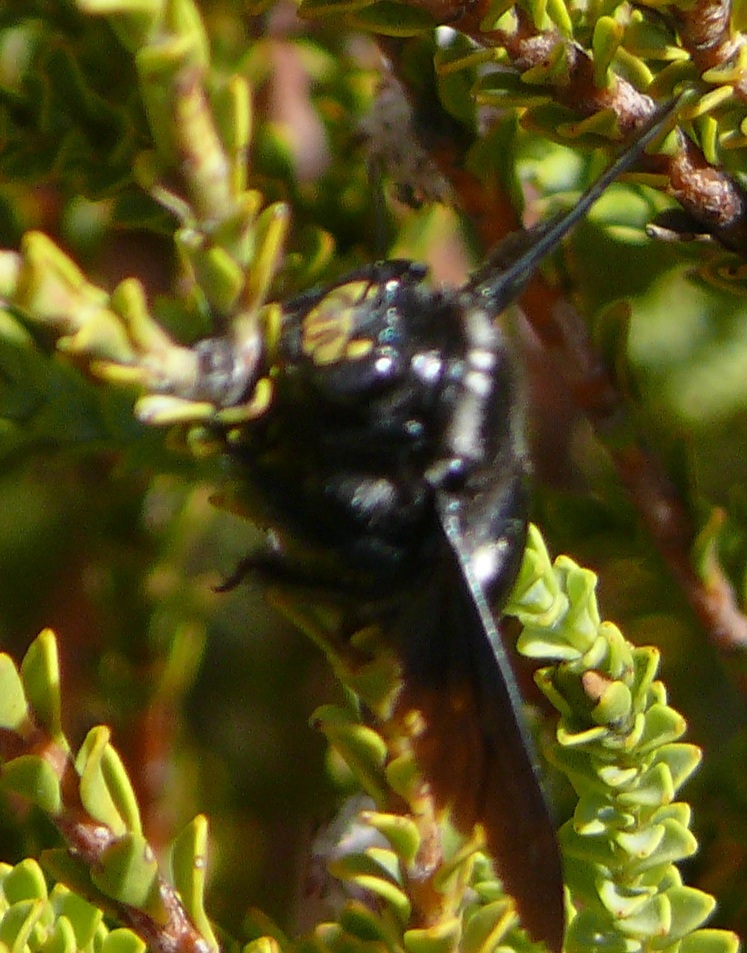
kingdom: Animalia
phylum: Arthropoda
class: Insecta
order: Hymenoptera
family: Apidae
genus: Xylocopa
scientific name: Xylocopa capitata
